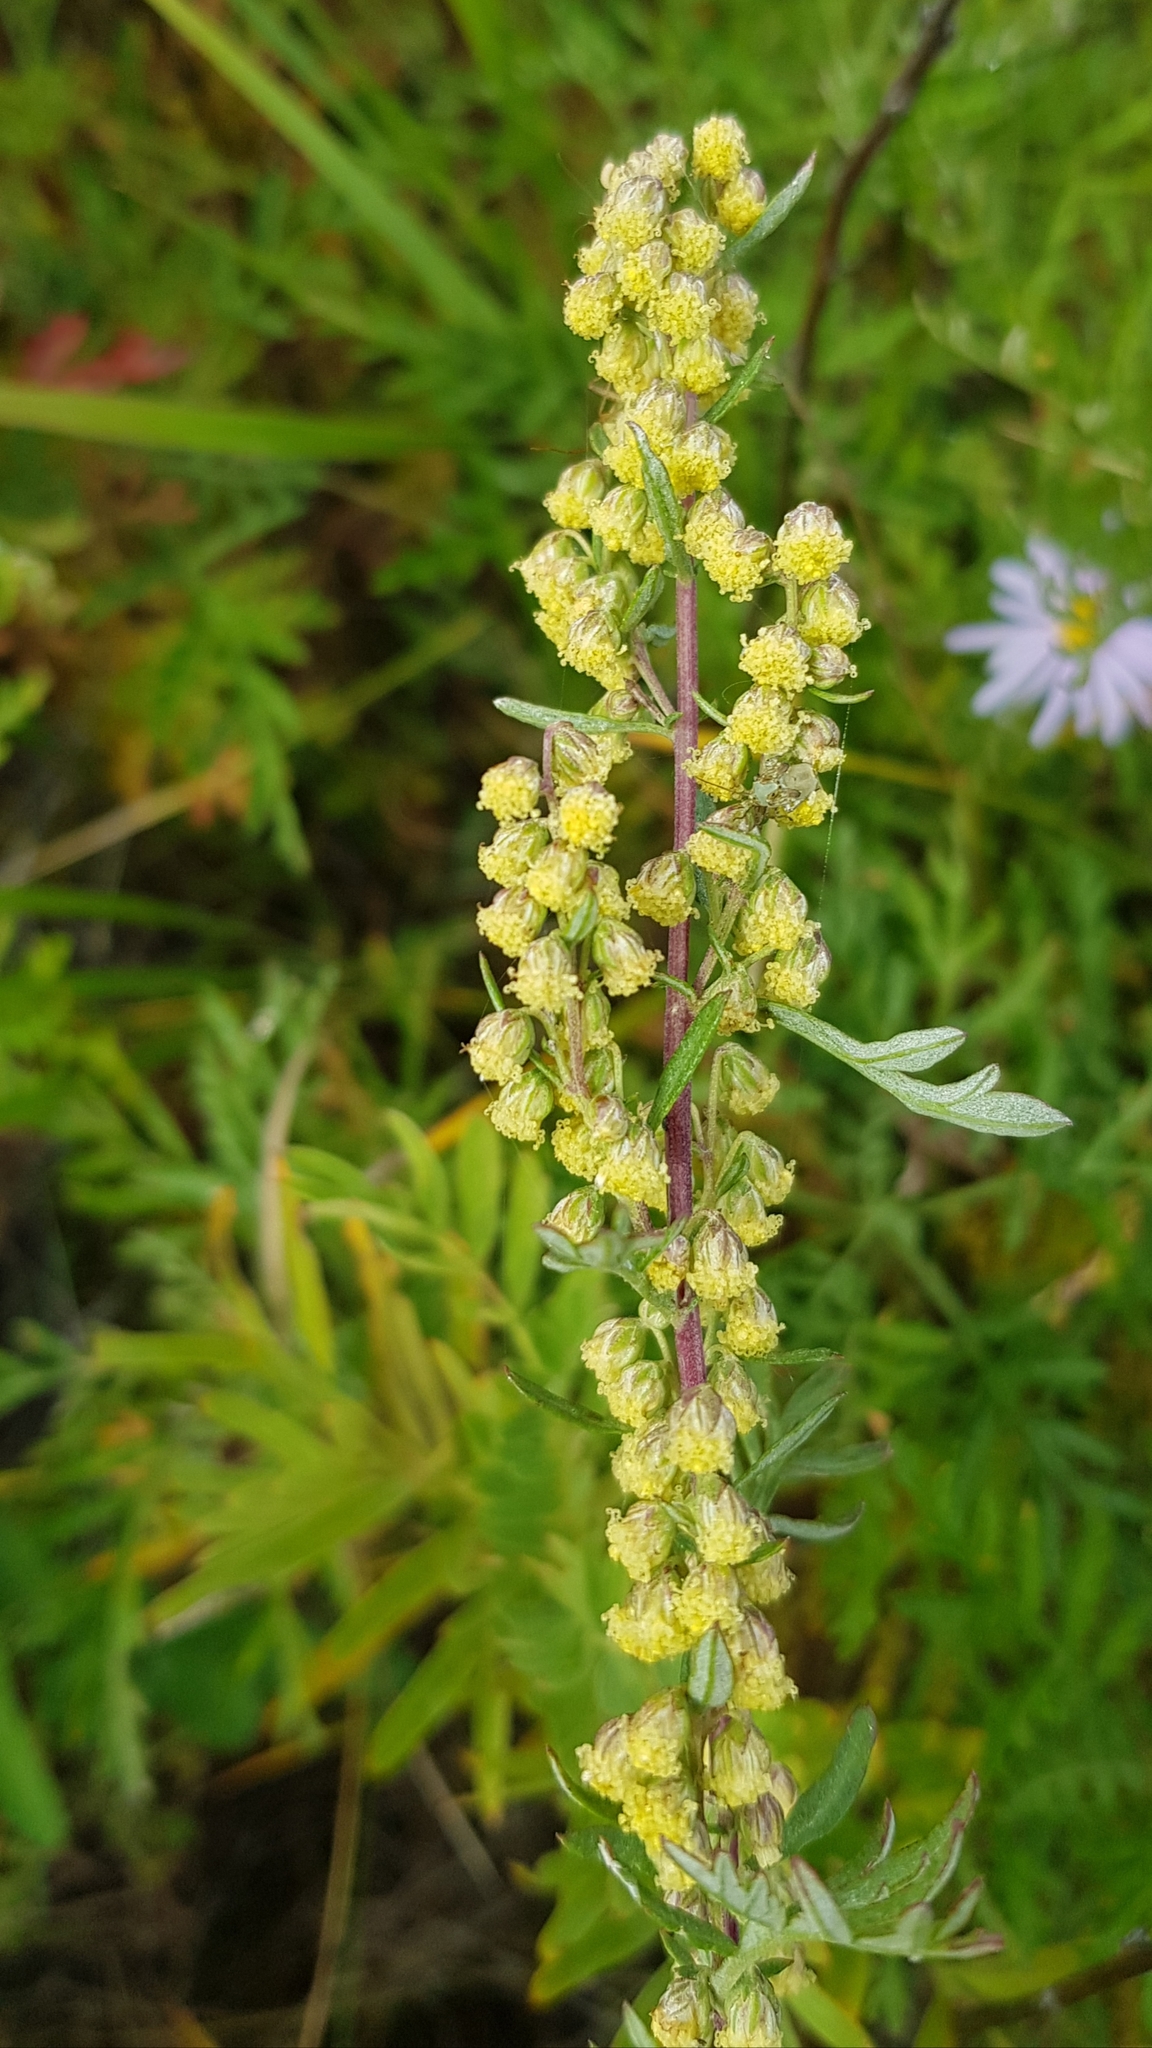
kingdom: Plantae
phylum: Tracheophyta
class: Magnoliopsida
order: Asterales
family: Asteraceae
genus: Artemisia
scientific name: Artemisia gmelinii
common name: Gmelin's wormwood
